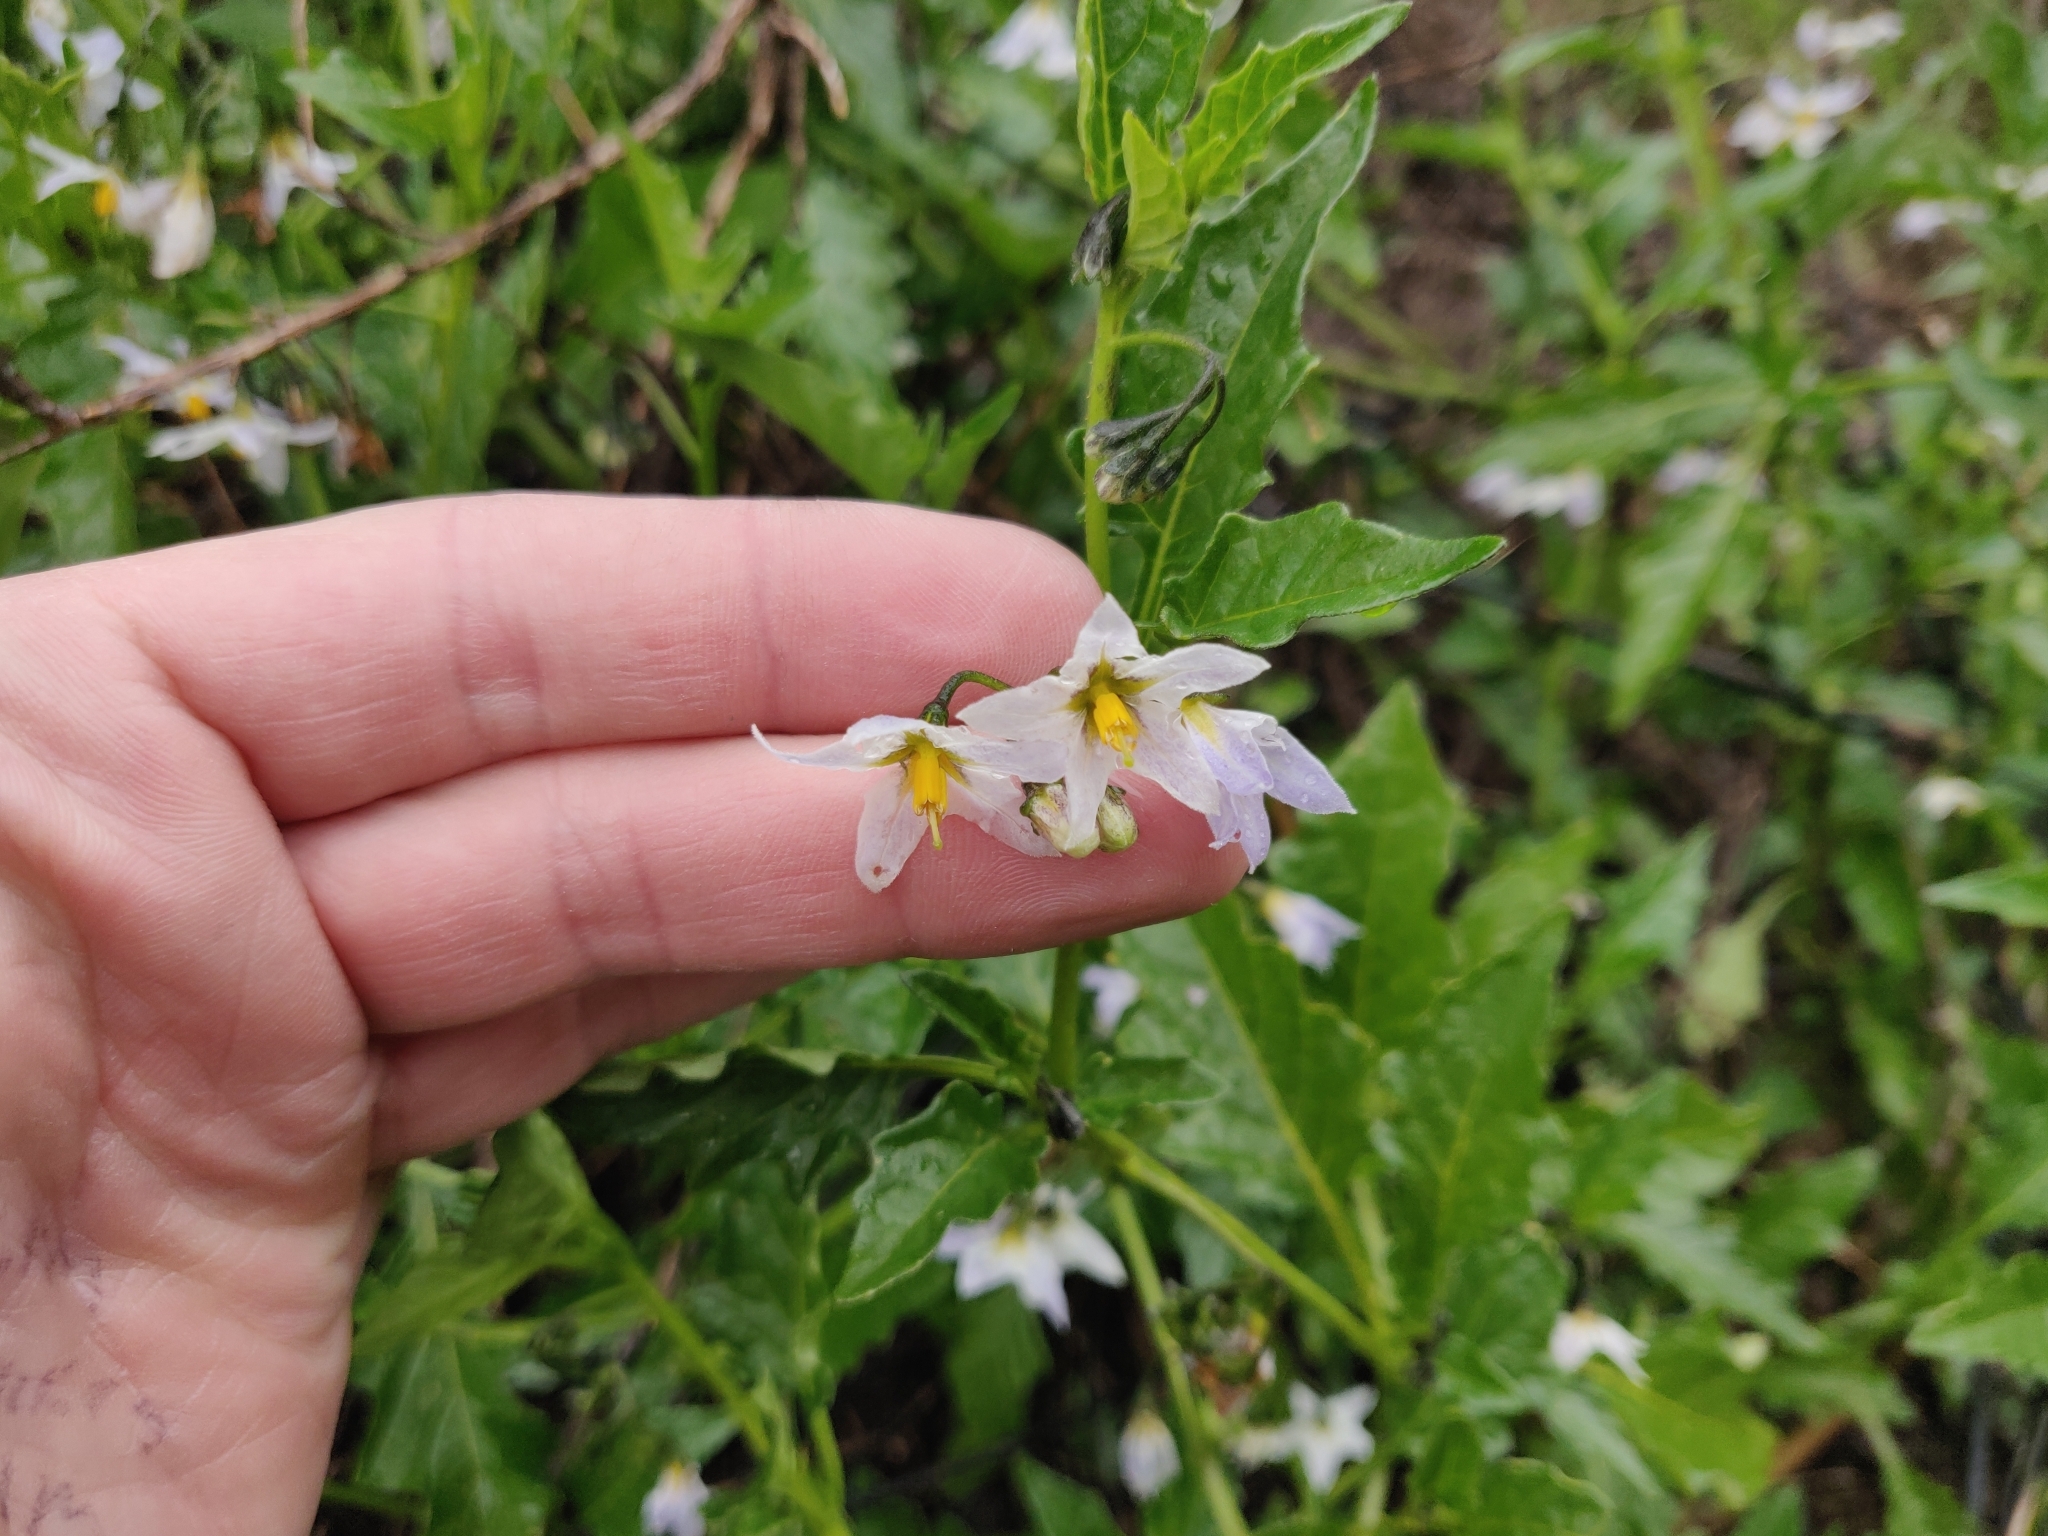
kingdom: Plantae
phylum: Tracheophyta
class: Magnoliopsida
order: Solanales
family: Solanaceae
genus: Solanum
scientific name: Solanum furcatum
